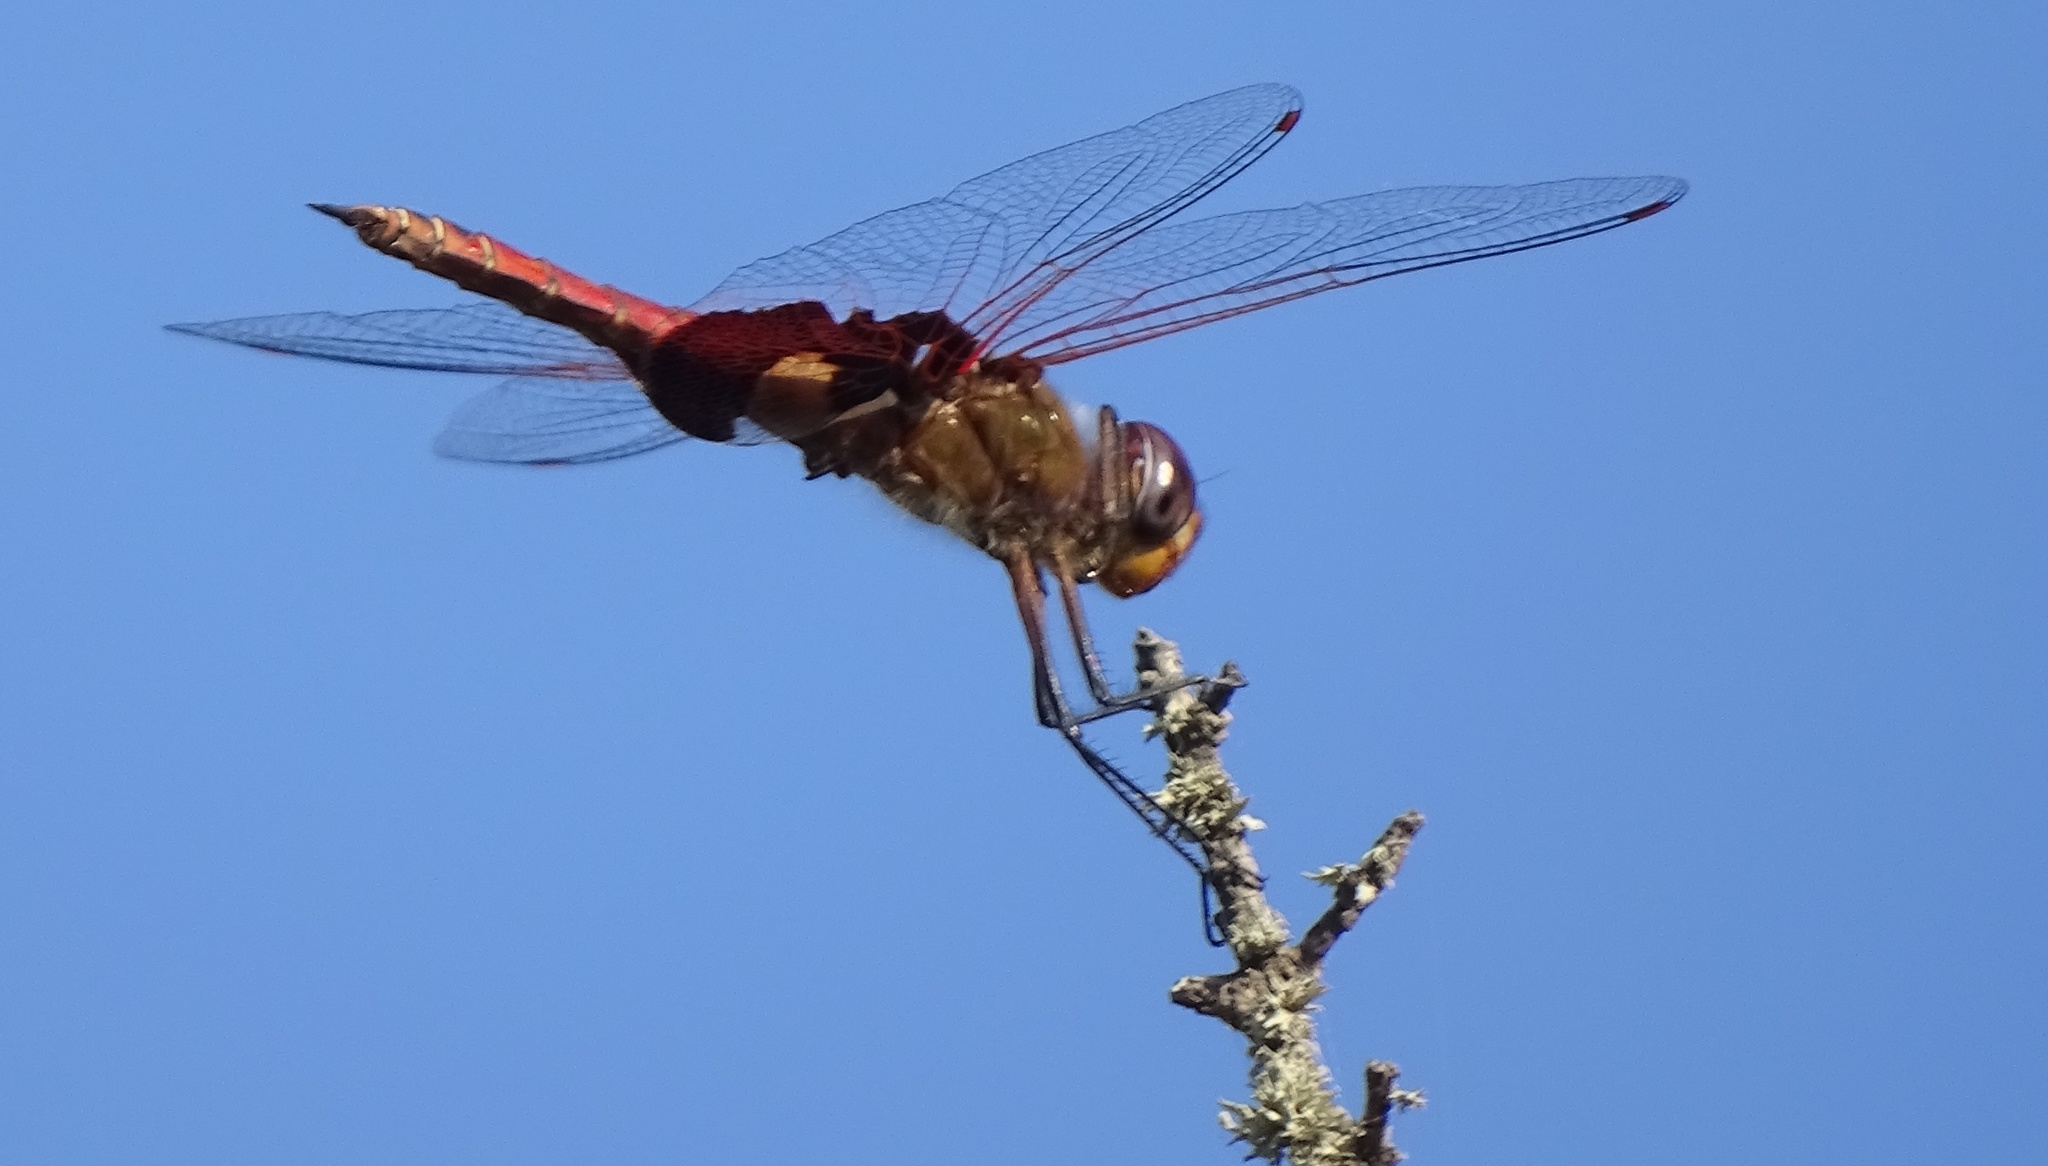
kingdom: Animalia
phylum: Arthropoda
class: Insecta
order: Odonata
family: Libellulidae
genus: Tramea
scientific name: Tramea onusta
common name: Red saddlebags
